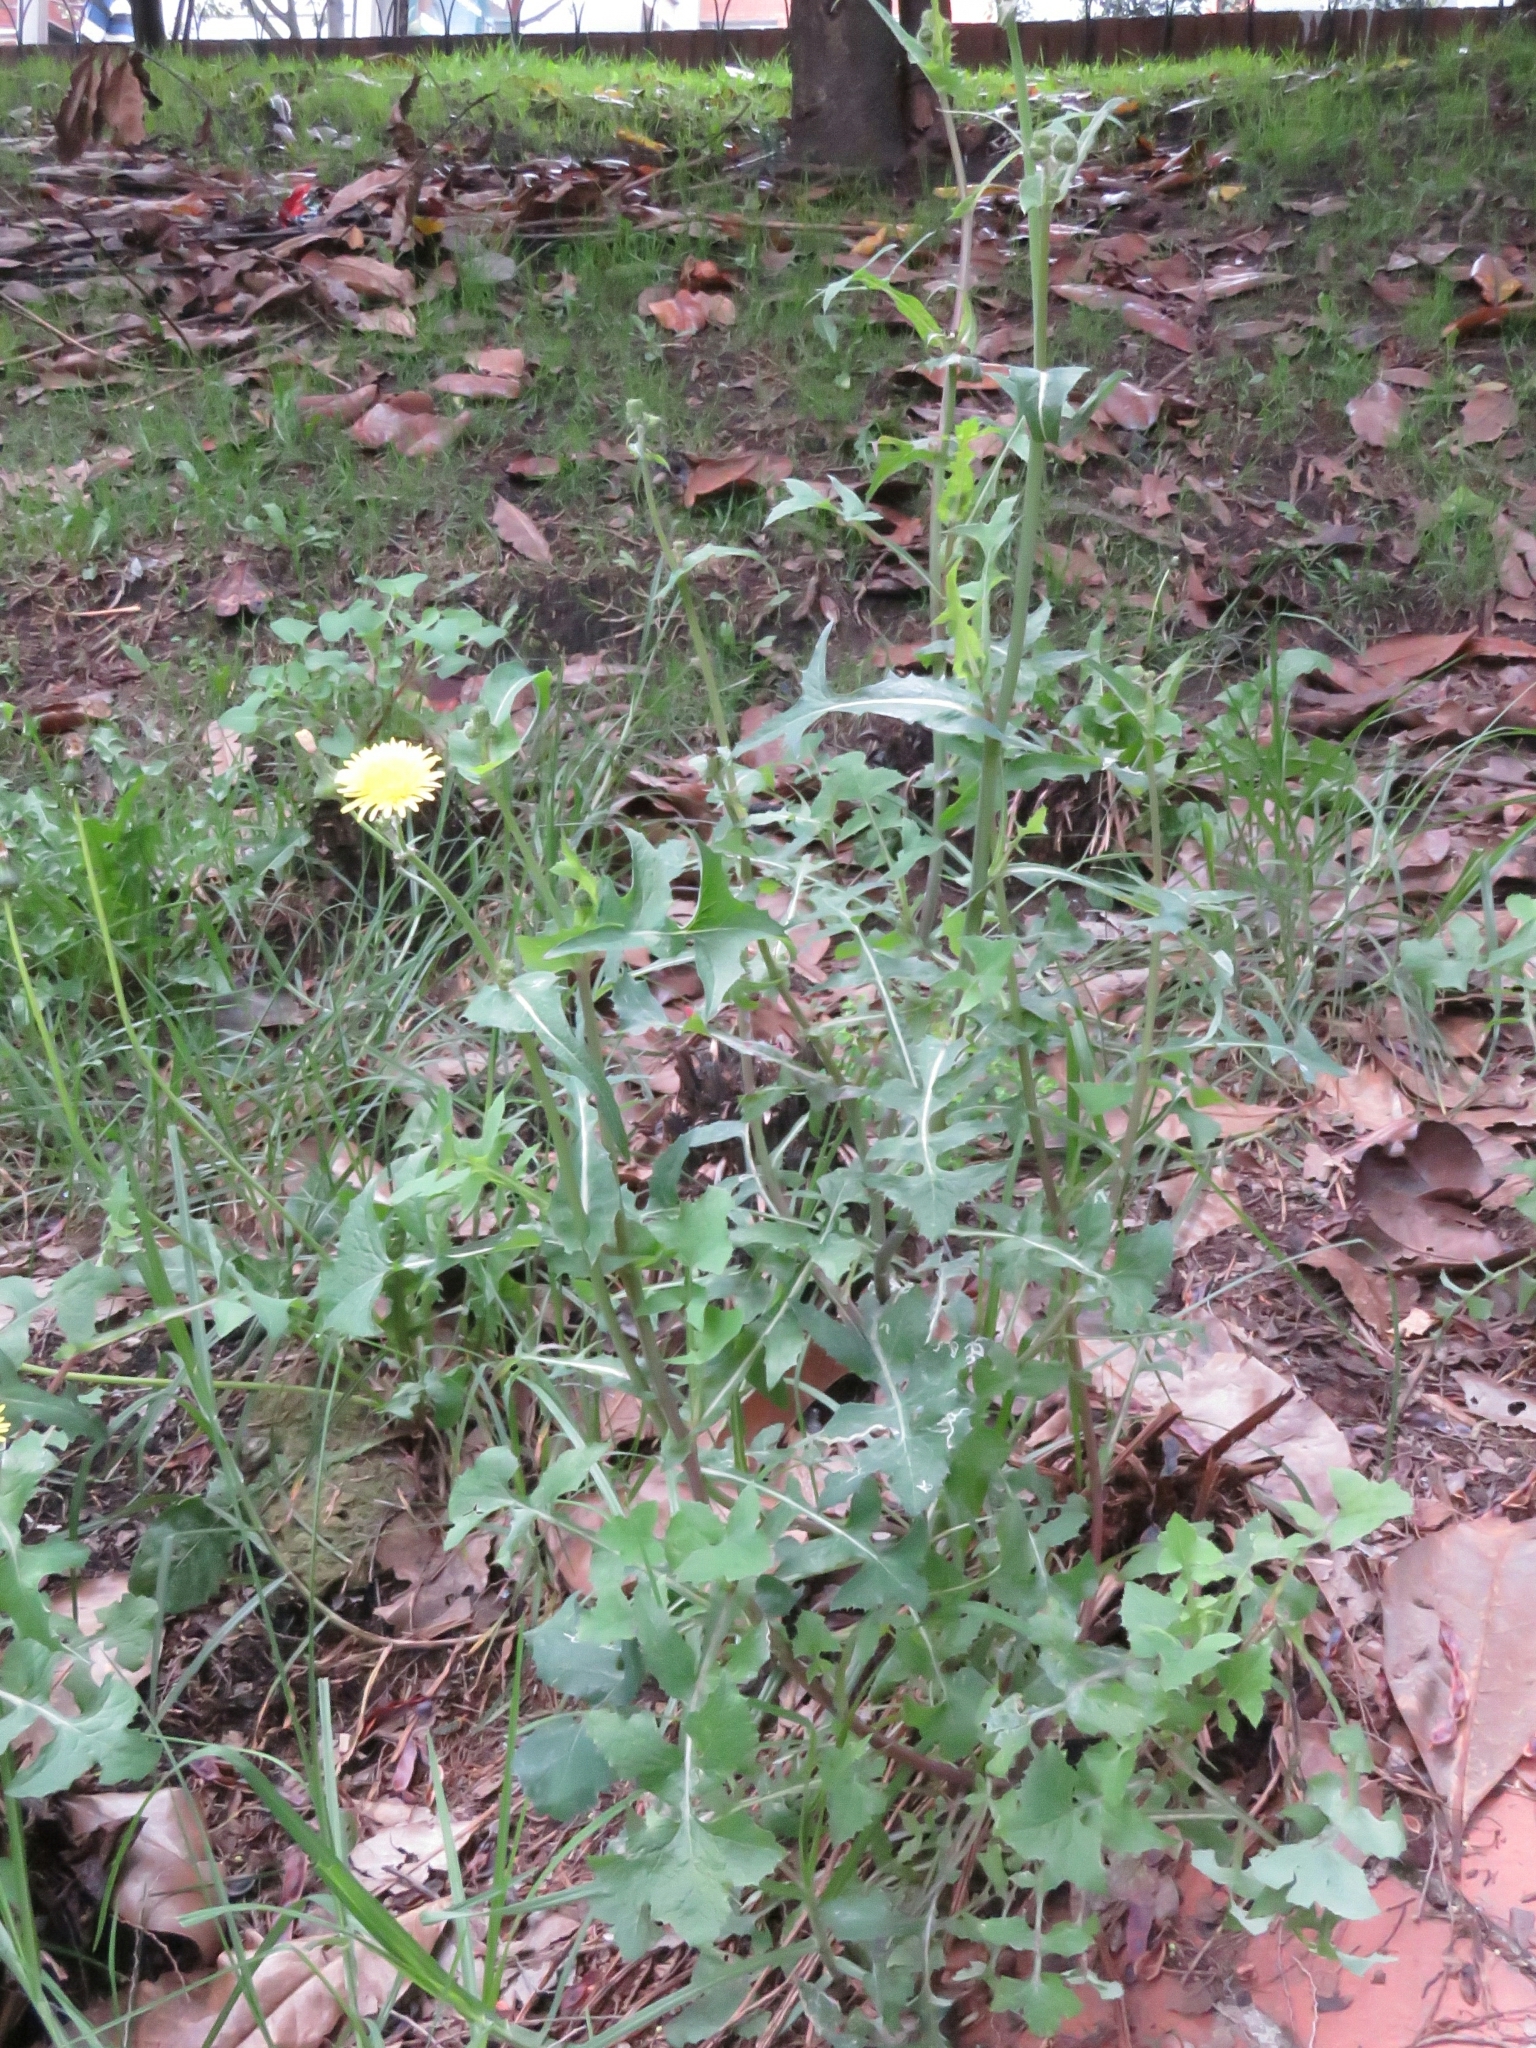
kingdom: Plantae
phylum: Tracheophyta
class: Magnoliopsida
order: Asterales
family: Asteraceae
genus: Sonchus
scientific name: Sonchus oleraceus
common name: Common sowthistle
